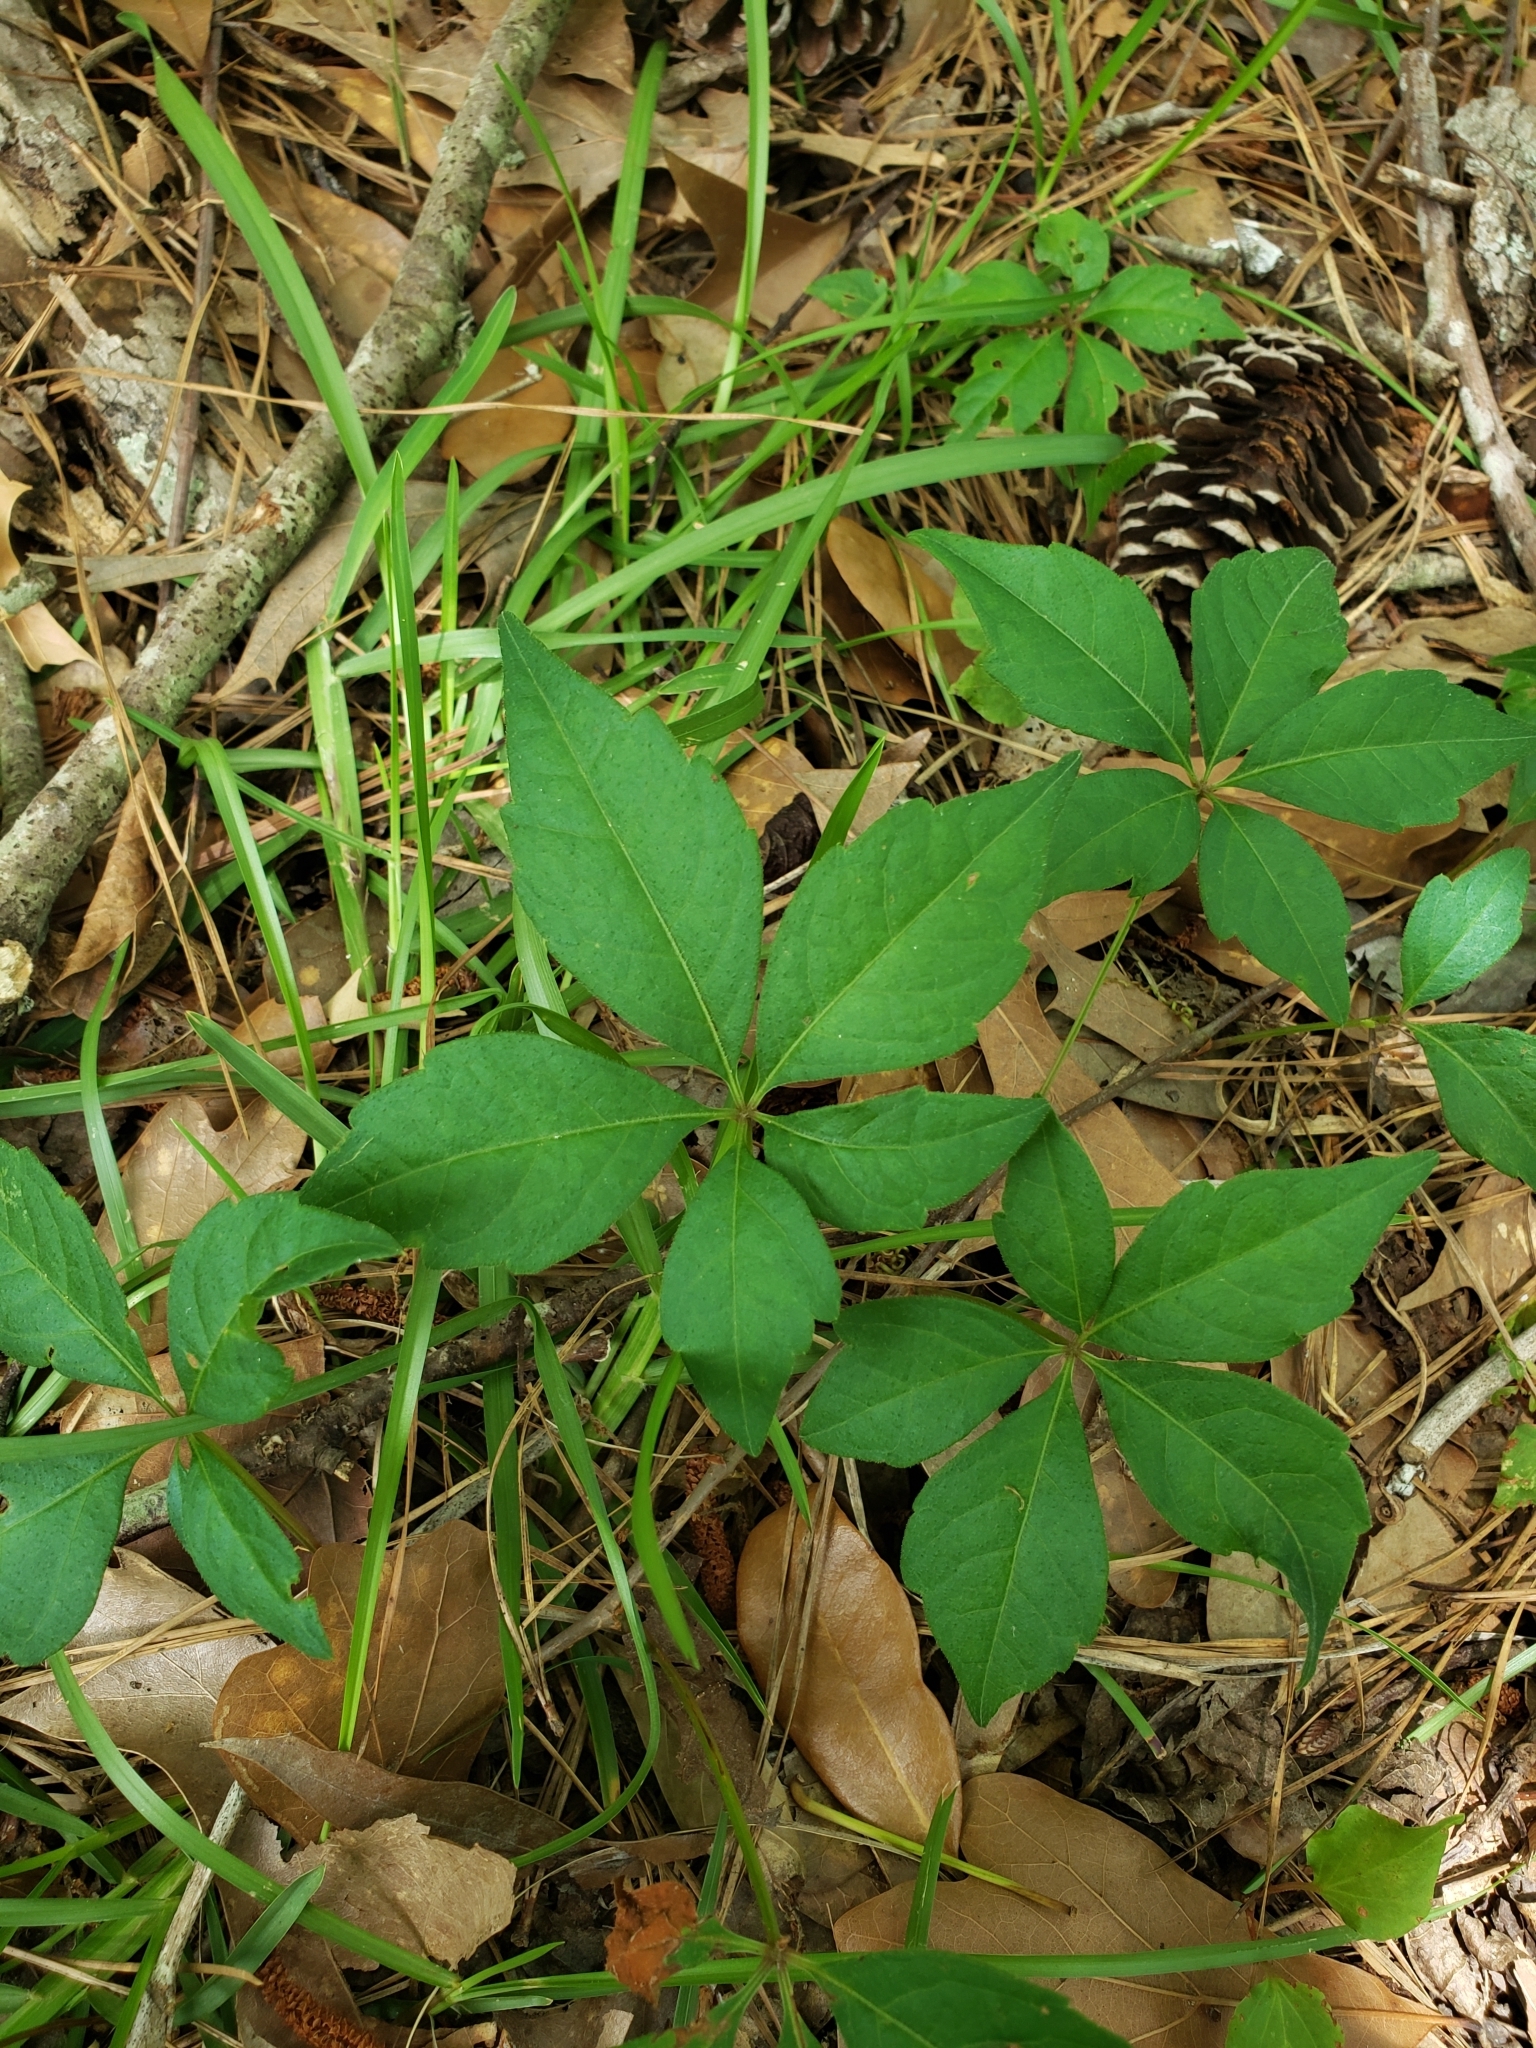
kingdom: Plantae
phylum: Tracheophyta
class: Magnoliopsida
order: Vitales
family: Vitaceae
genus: Parthenocissus
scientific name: Parthenocissus quinquefolia
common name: Virginia-creeper
